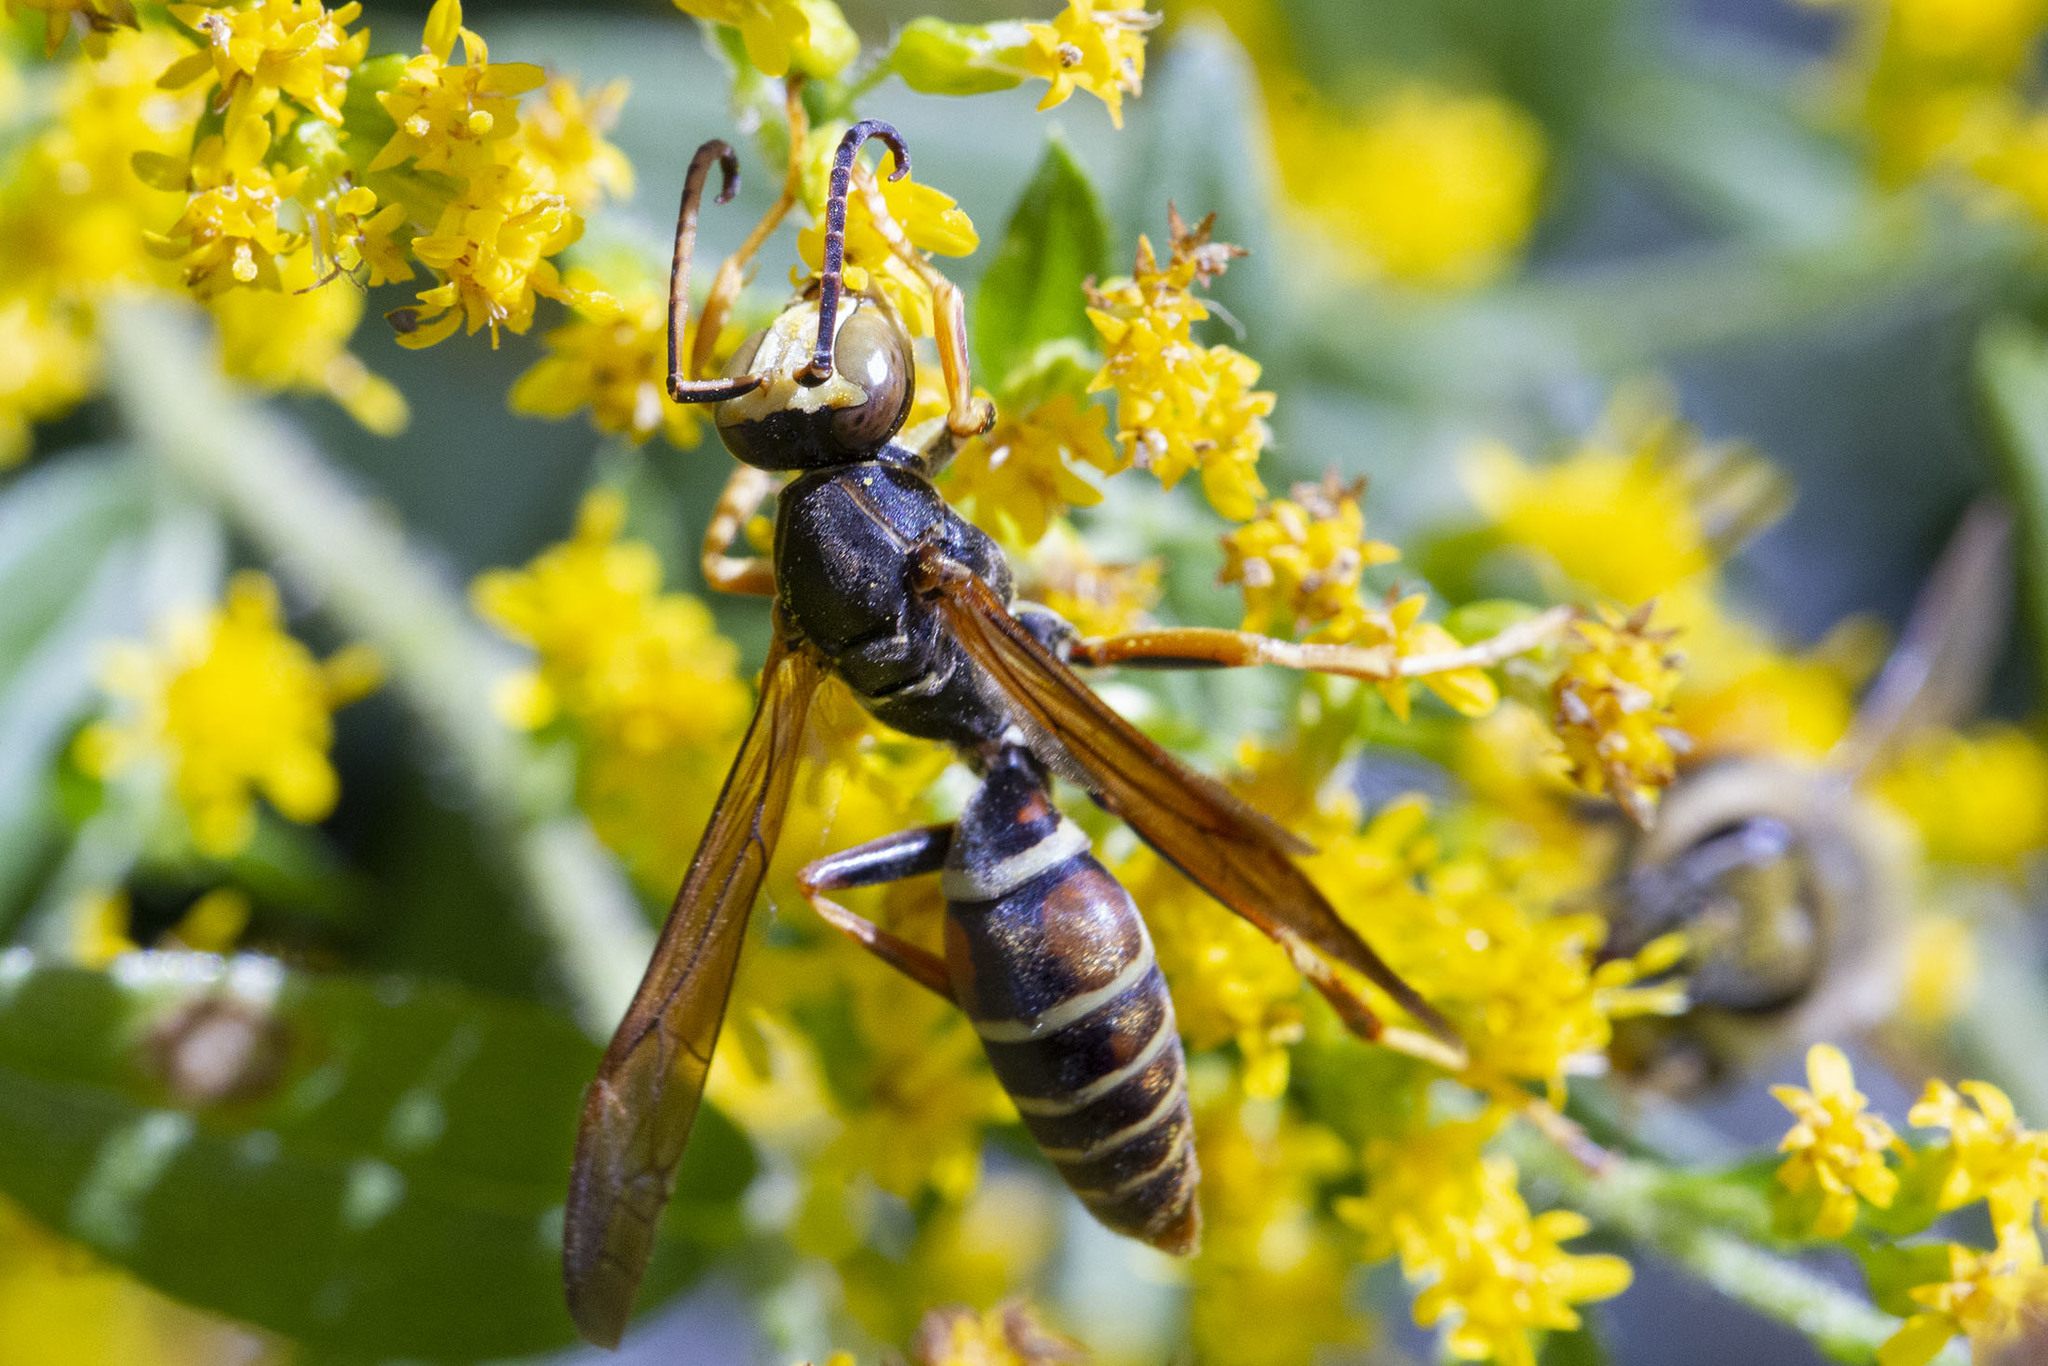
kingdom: Animalia
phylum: Arthropoda
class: Insecta
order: Hymenoptera
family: Eumenidae
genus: Polistes
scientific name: Polistes fuscatus
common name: Dark paper wasp
